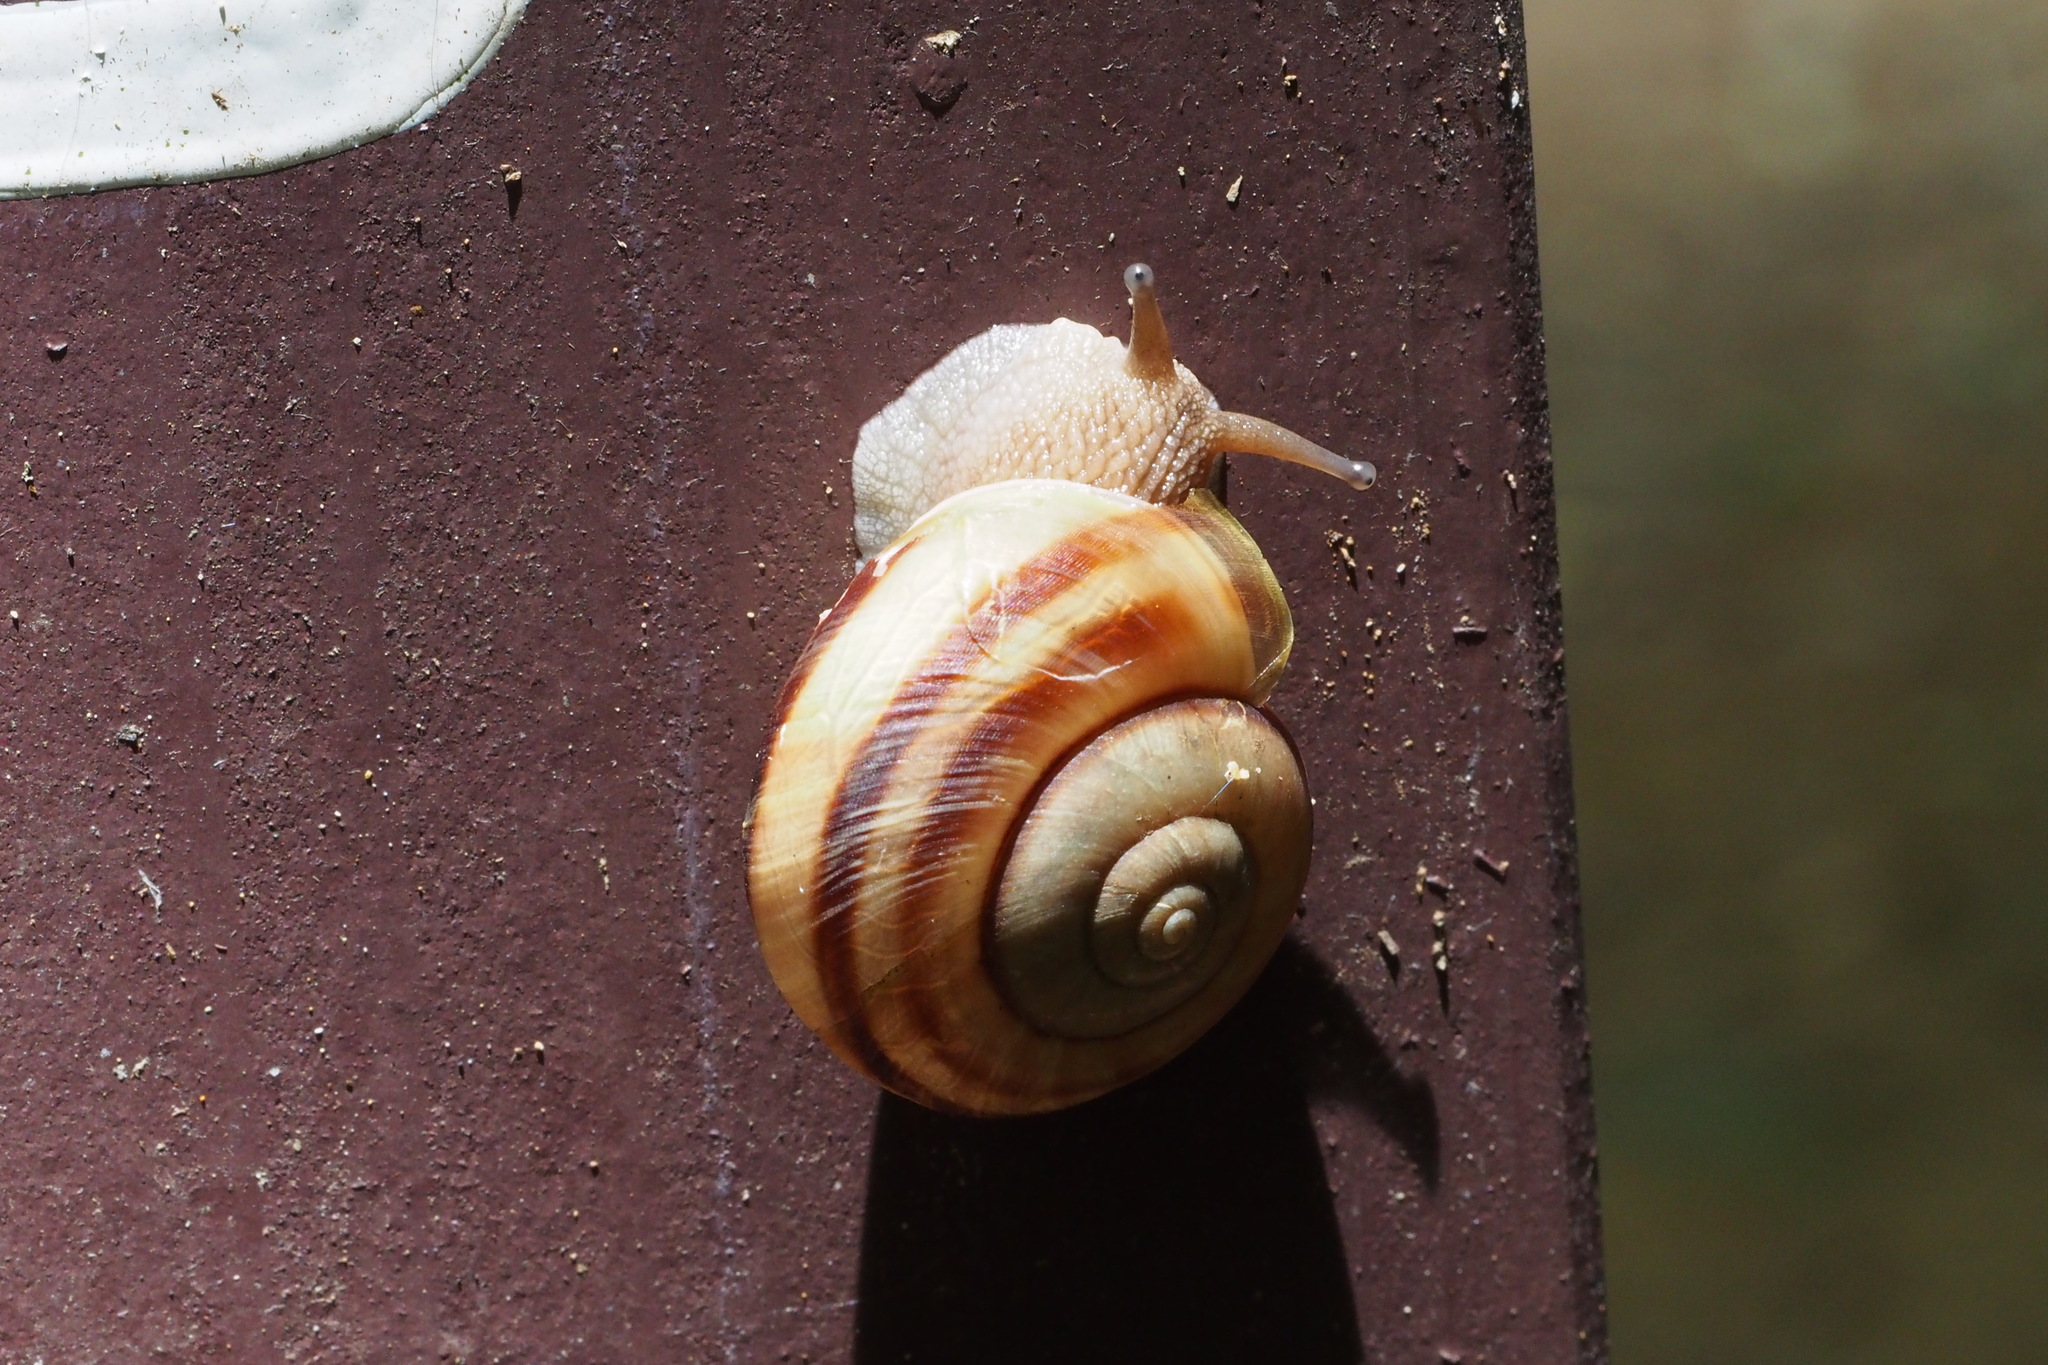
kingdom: Animalia
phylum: Mollusca
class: Gastropoda
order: Stylommatophora
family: Camaenidae
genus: Euhadra
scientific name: Euhadra sandai
